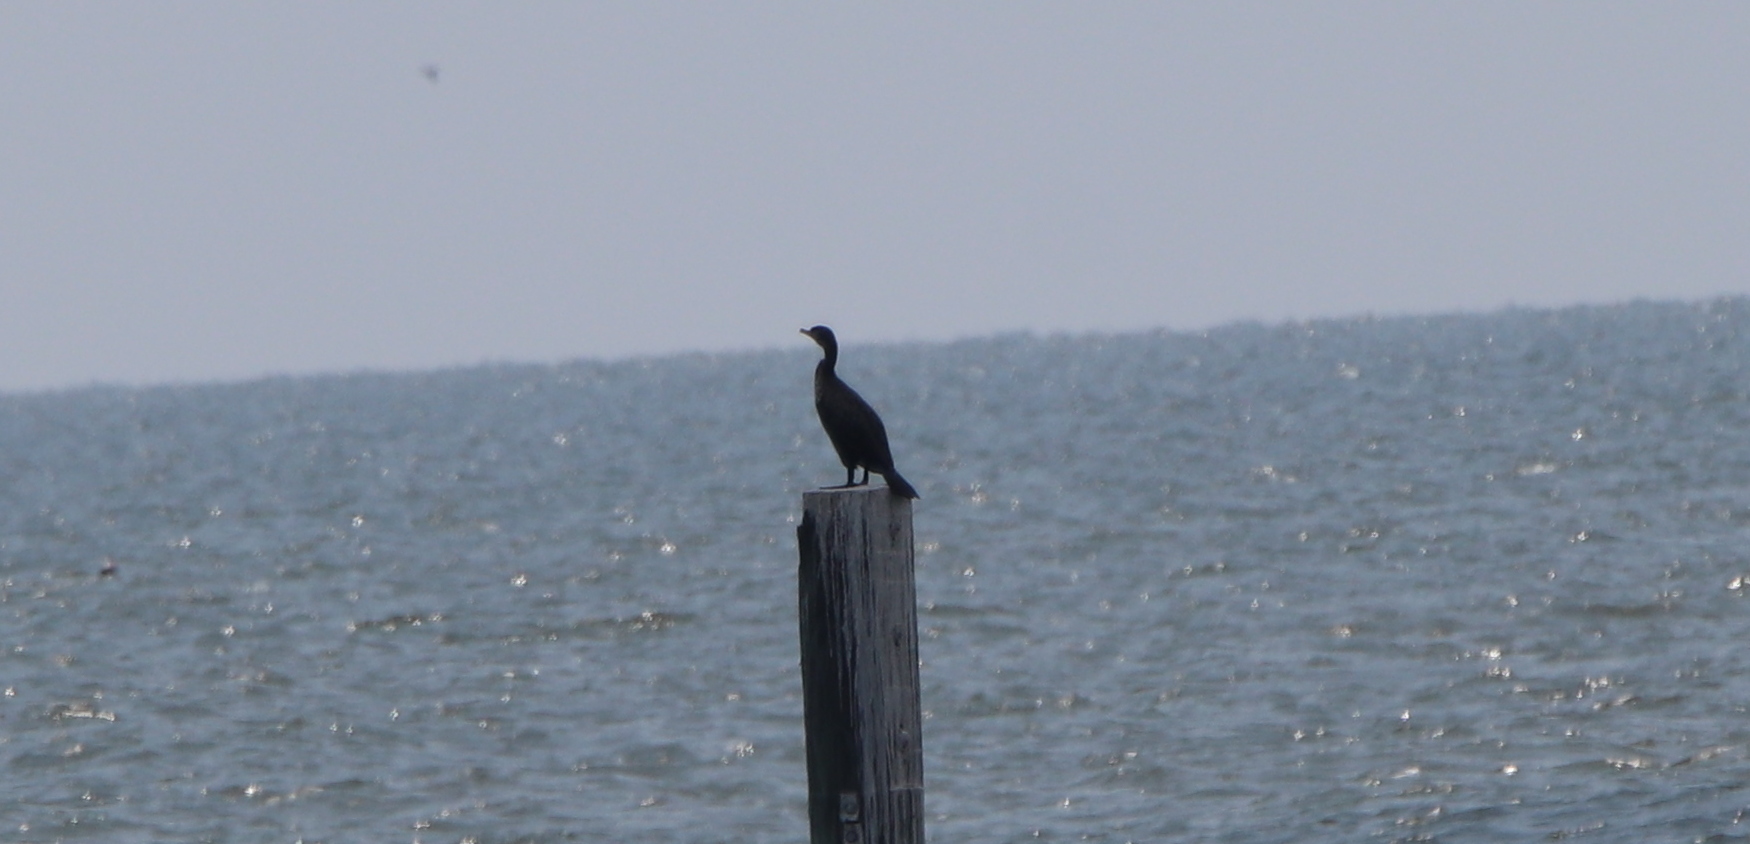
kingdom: Animalia
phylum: Chordata
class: Aves
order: Suliformes
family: Phalacrocoracidae
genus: Phalacrocorax
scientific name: Phalacrocorax auritus
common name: Double-crested cormorant
